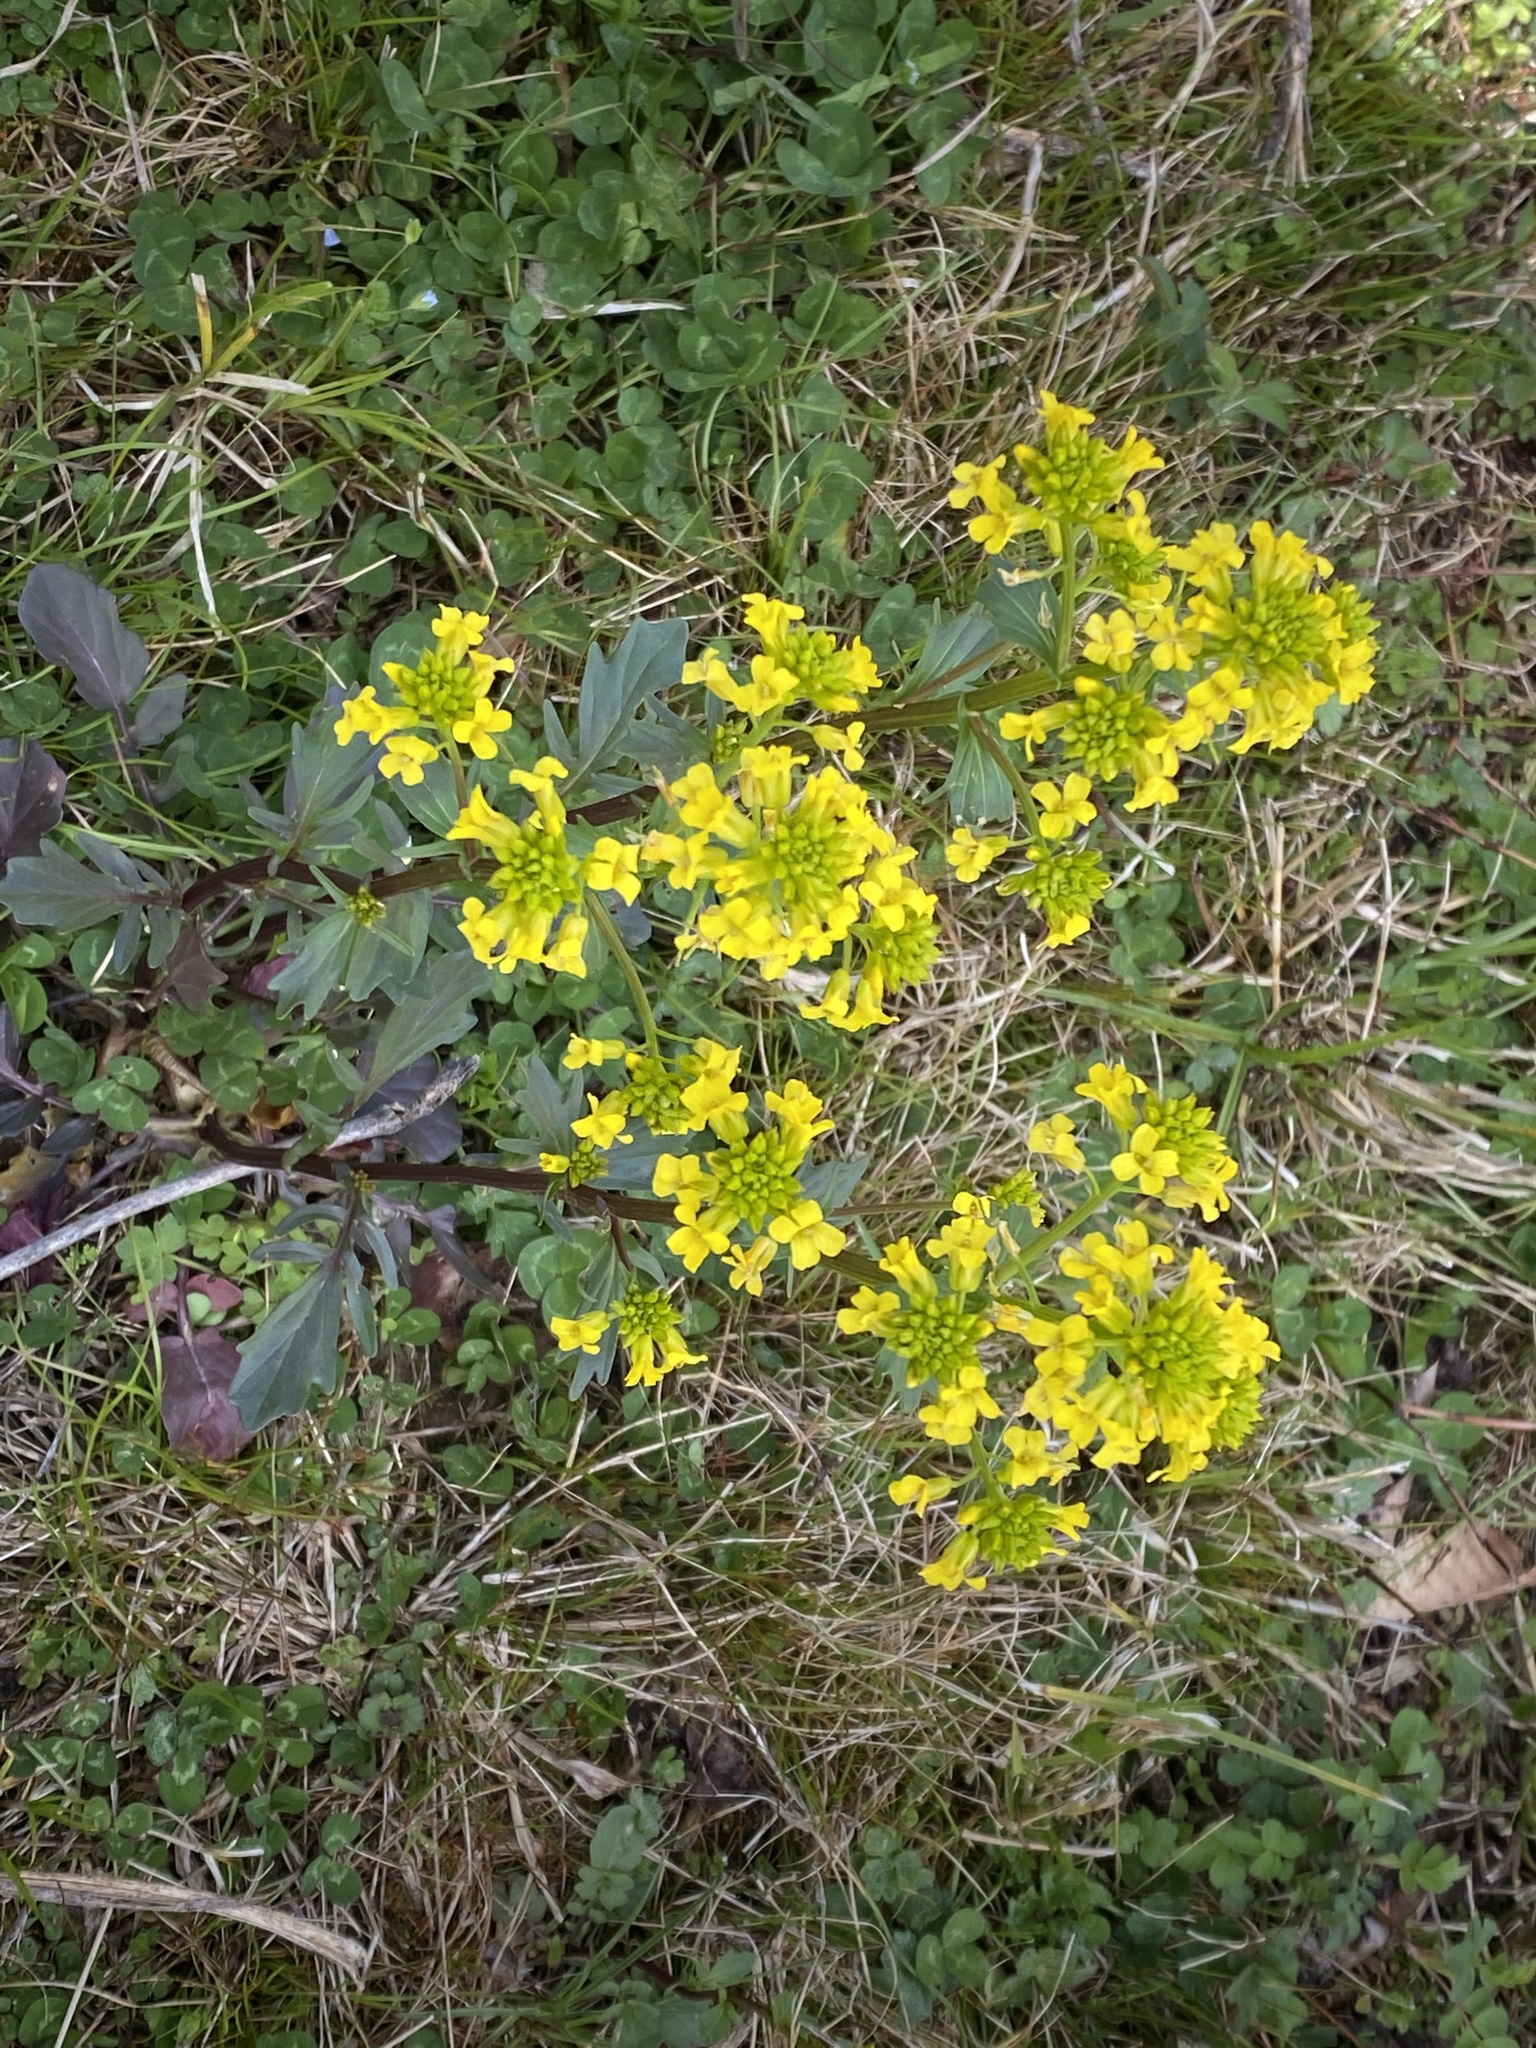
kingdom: Plantae
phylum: Tracheophyta
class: Magnoliopsida
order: Brassicales
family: Brassicaceae
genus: Barbarea
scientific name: Barbarea vulgaris
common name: Cressy-greens
